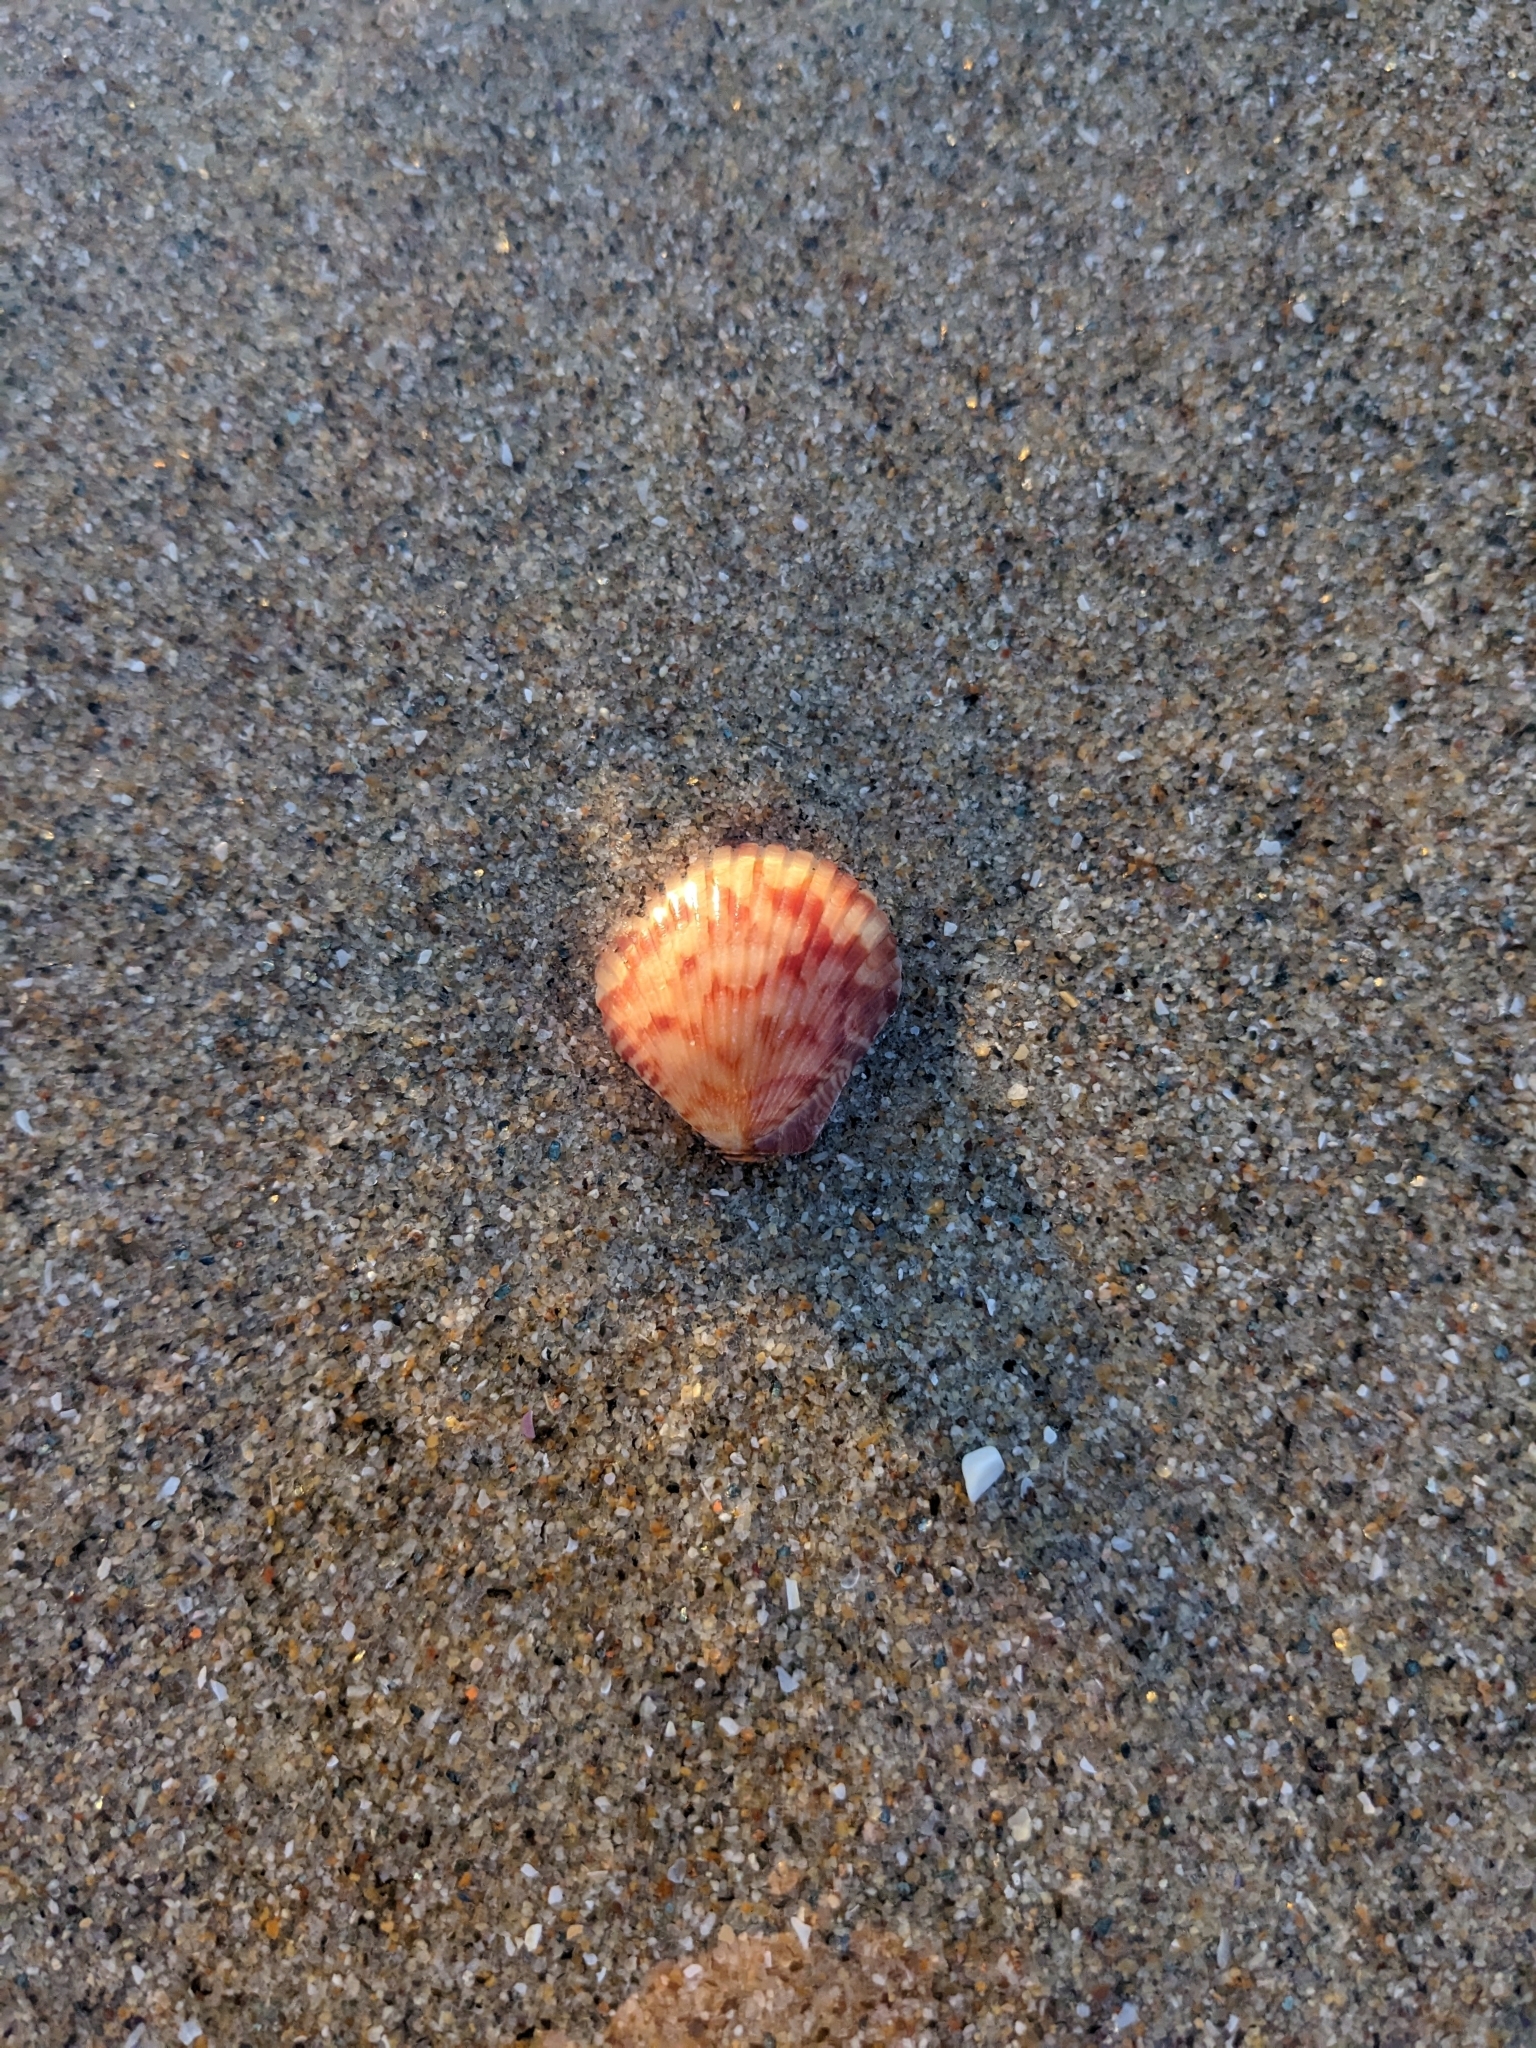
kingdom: Animalia
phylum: Mollusca
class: Bivalvia
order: Pectinida
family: Pectinidae
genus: Argopecten
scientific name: Argopecten ventricosus
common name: Catarina scallop
